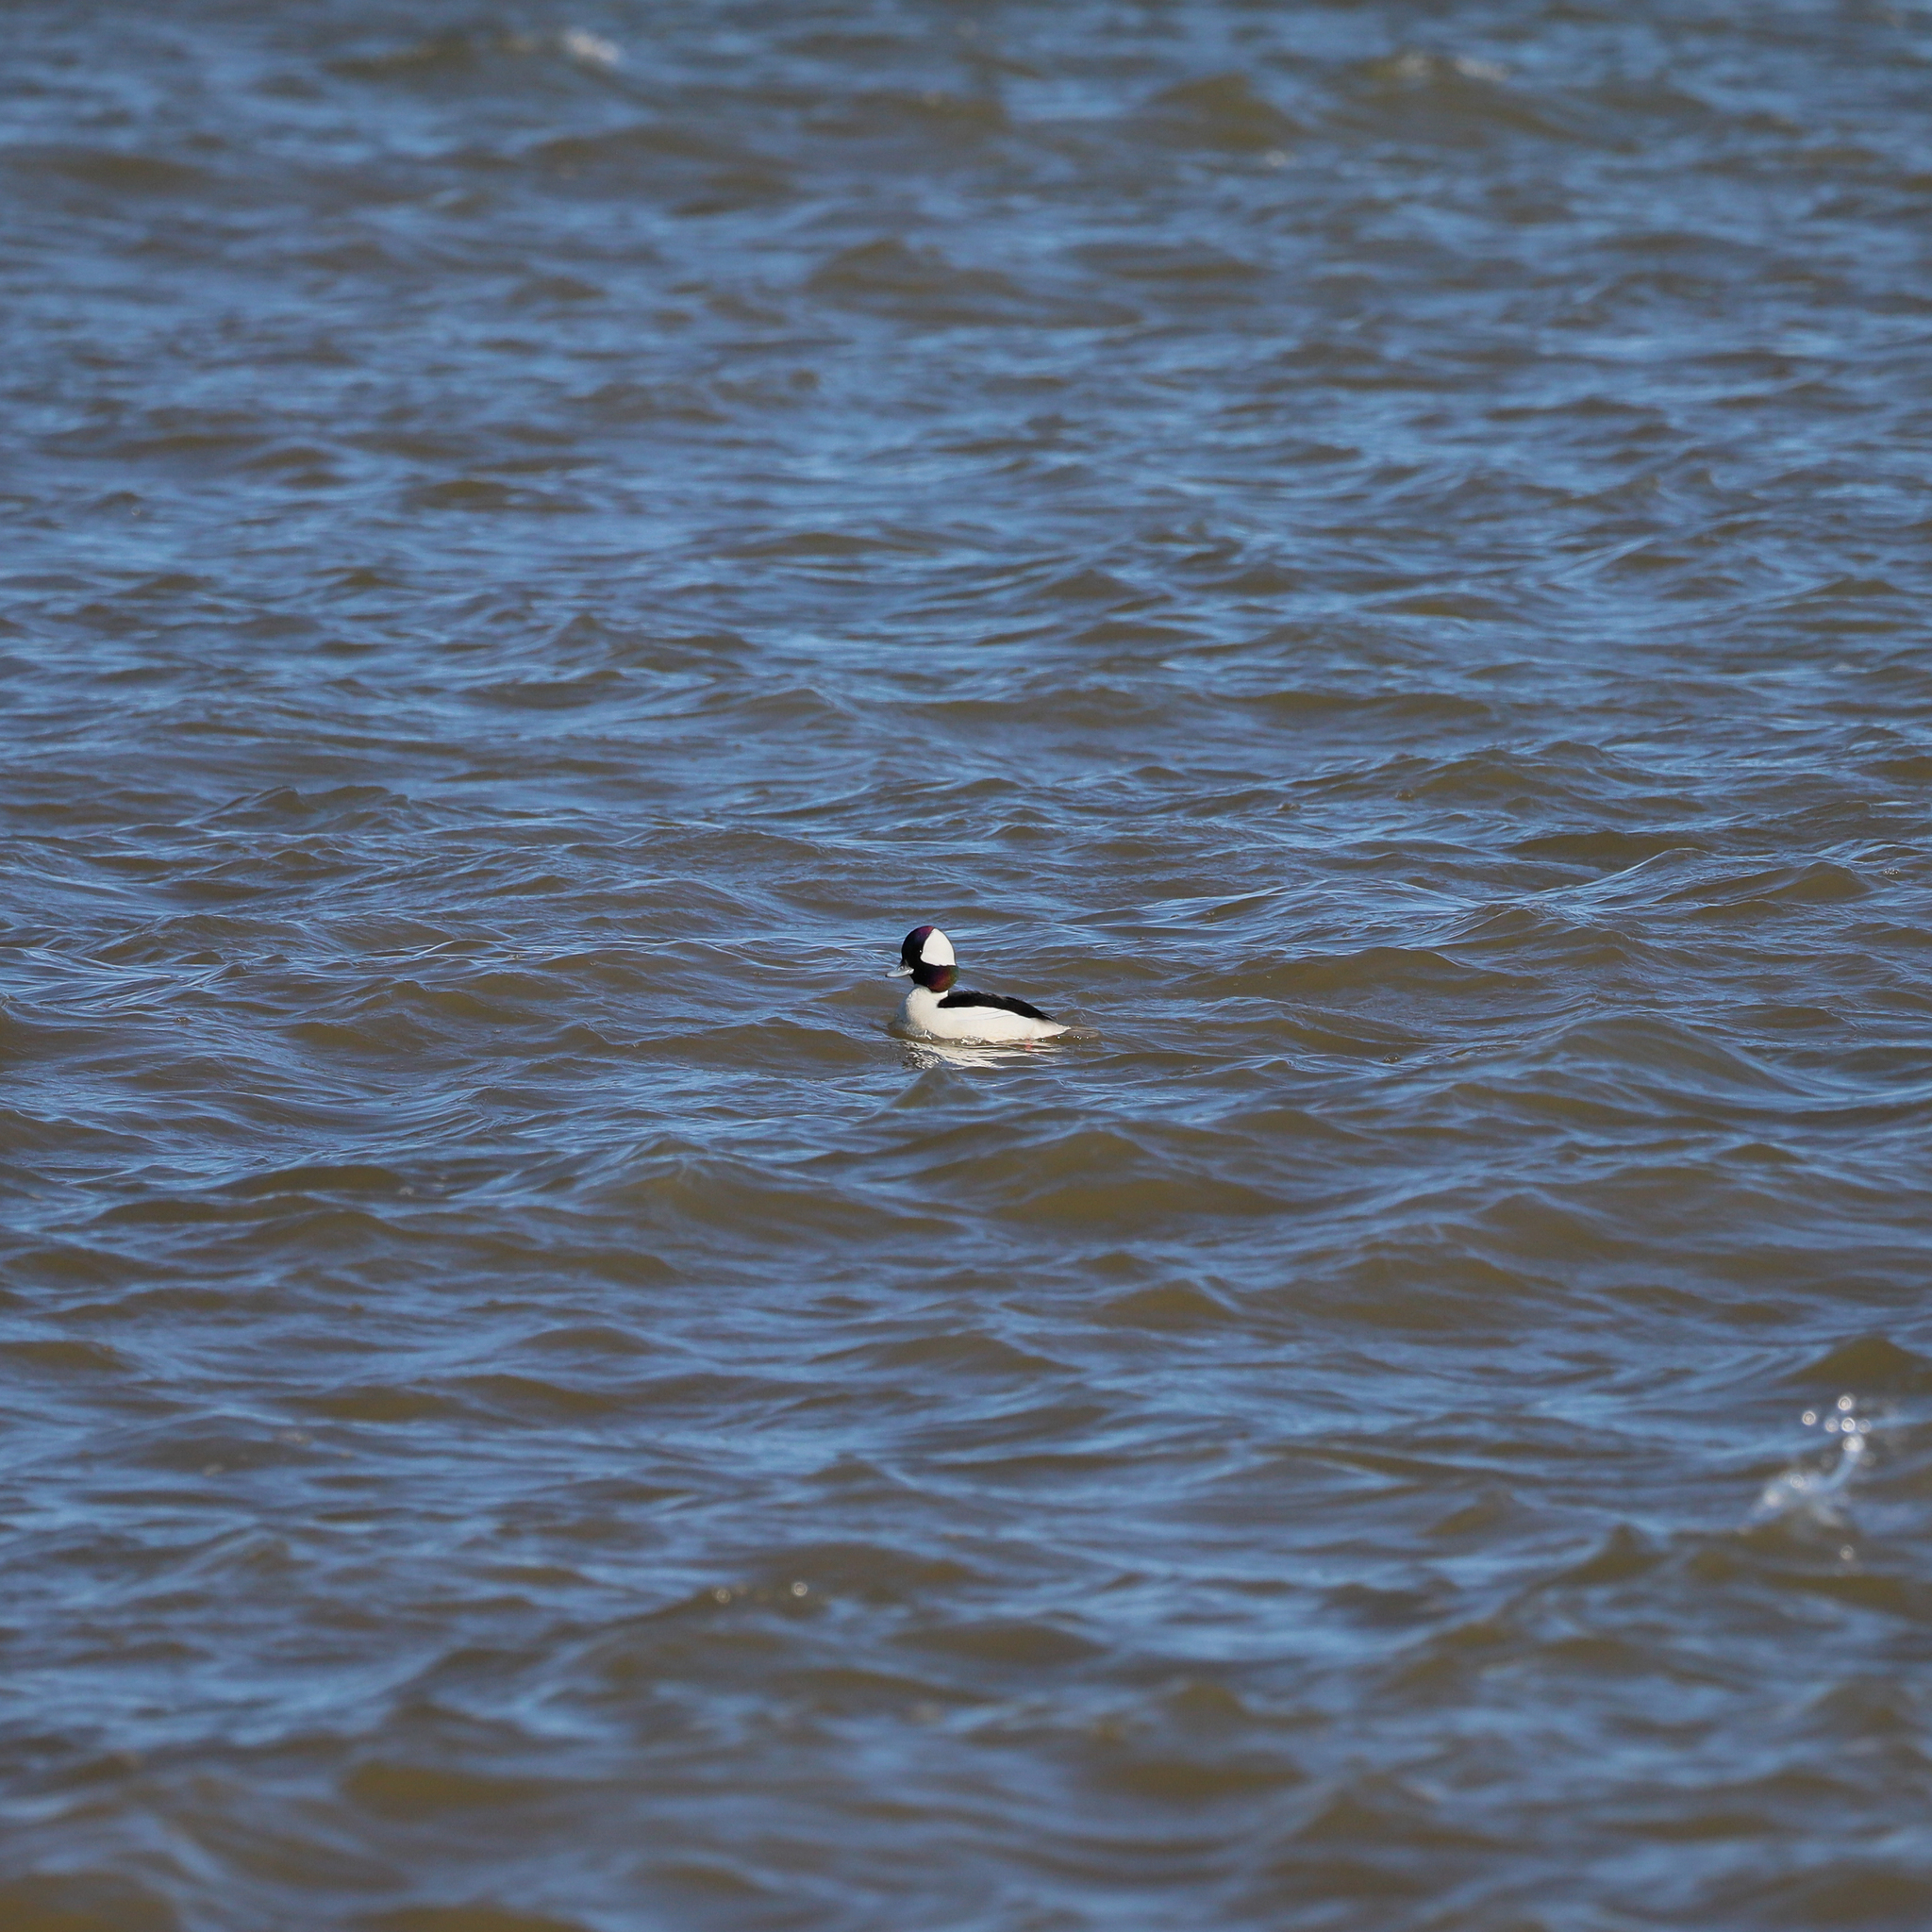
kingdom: Animalia
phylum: Chordata
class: Aves
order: Anseriformes
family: Anatidae
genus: Bucephala
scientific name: Bucephala albeola
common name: Bufflehead
